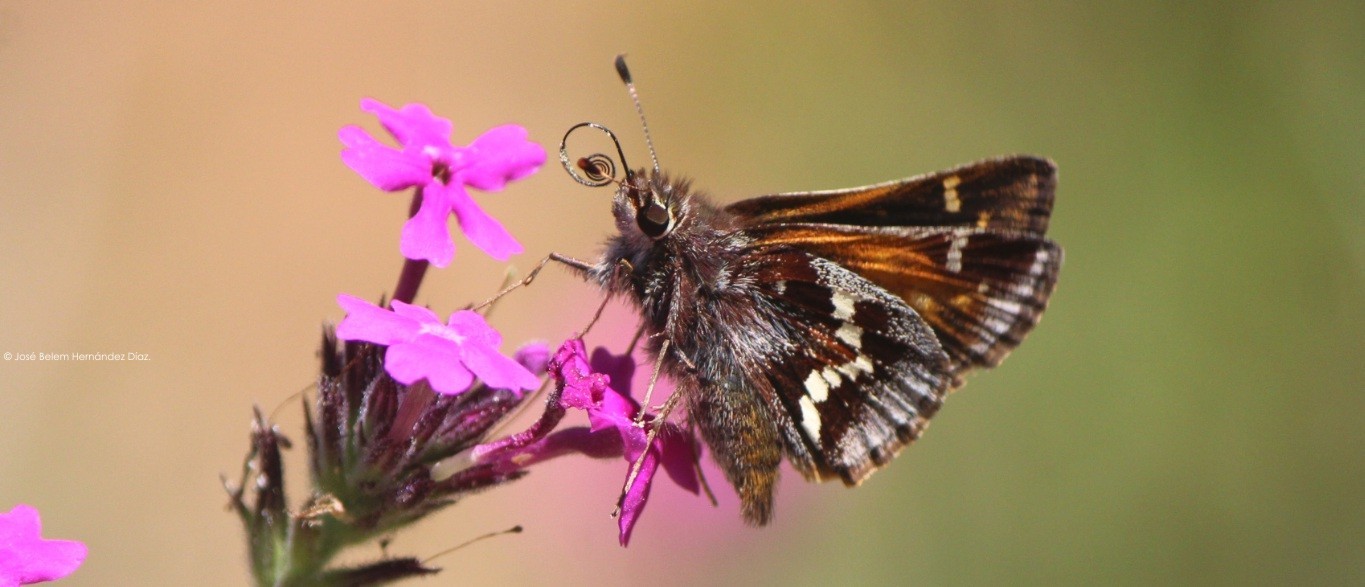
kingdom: Animalia
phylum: Arthropoda
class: Insecta
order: Lepidoptera
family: Hesperiidae
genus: Lon
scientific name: Lon monticola
